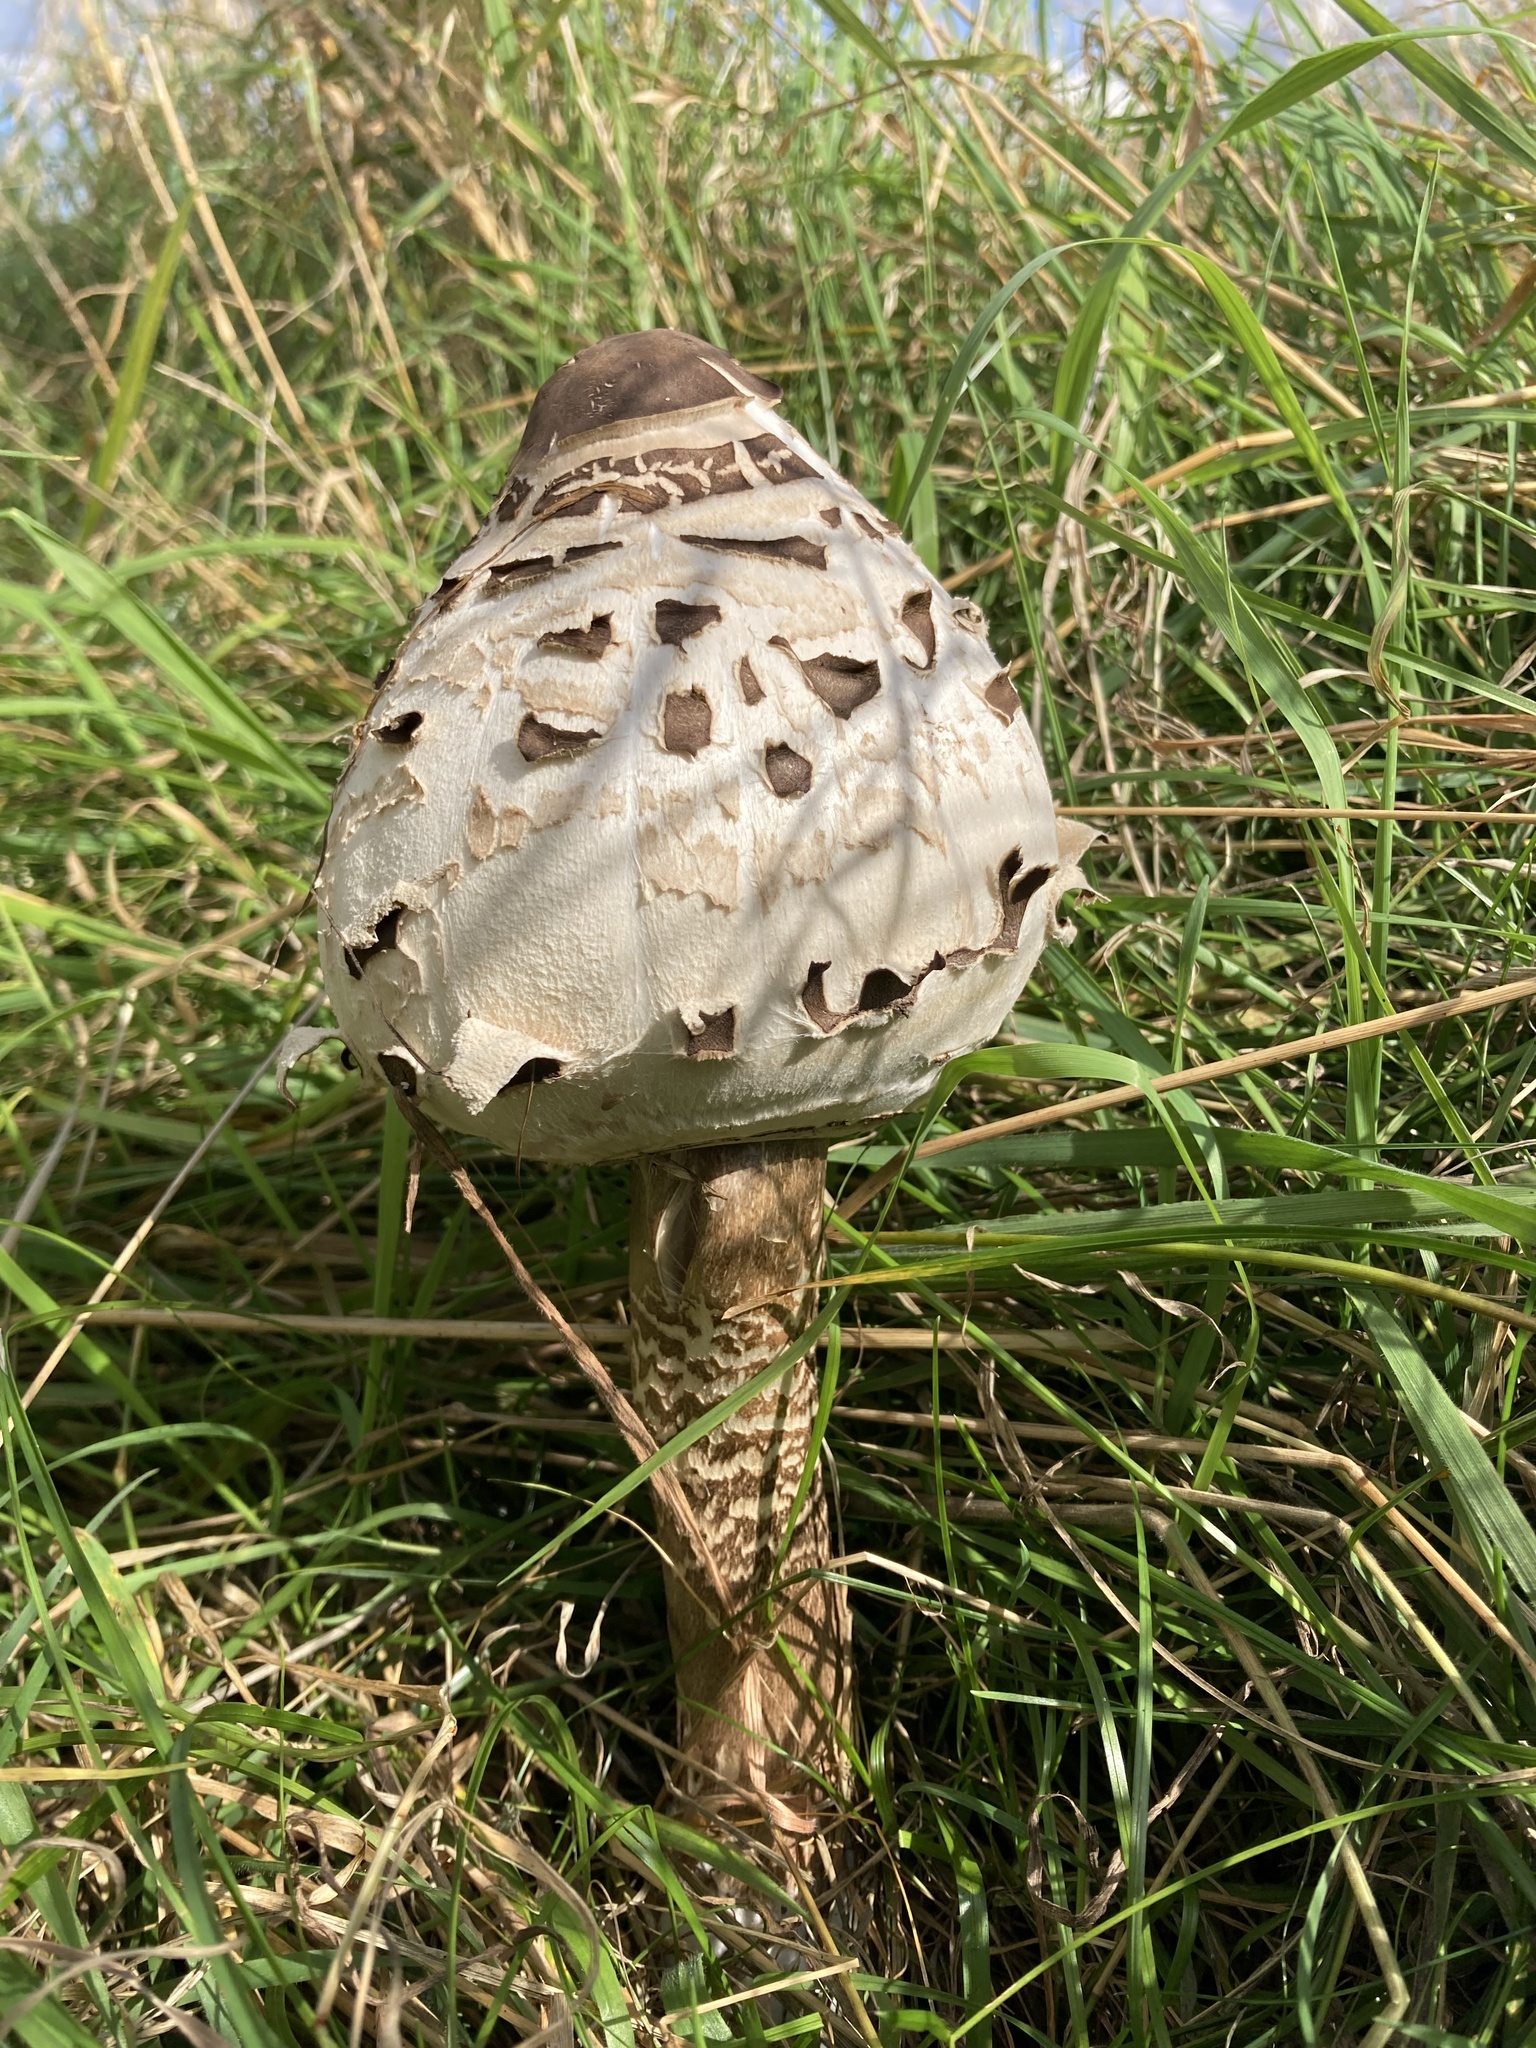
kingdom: Fungi
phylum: Basidiomycota
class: Agaricomycetes
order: Agaricales
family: Agaricaceae
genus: Macrolepiota
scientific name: Macrolepiota procera
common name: Parasol
